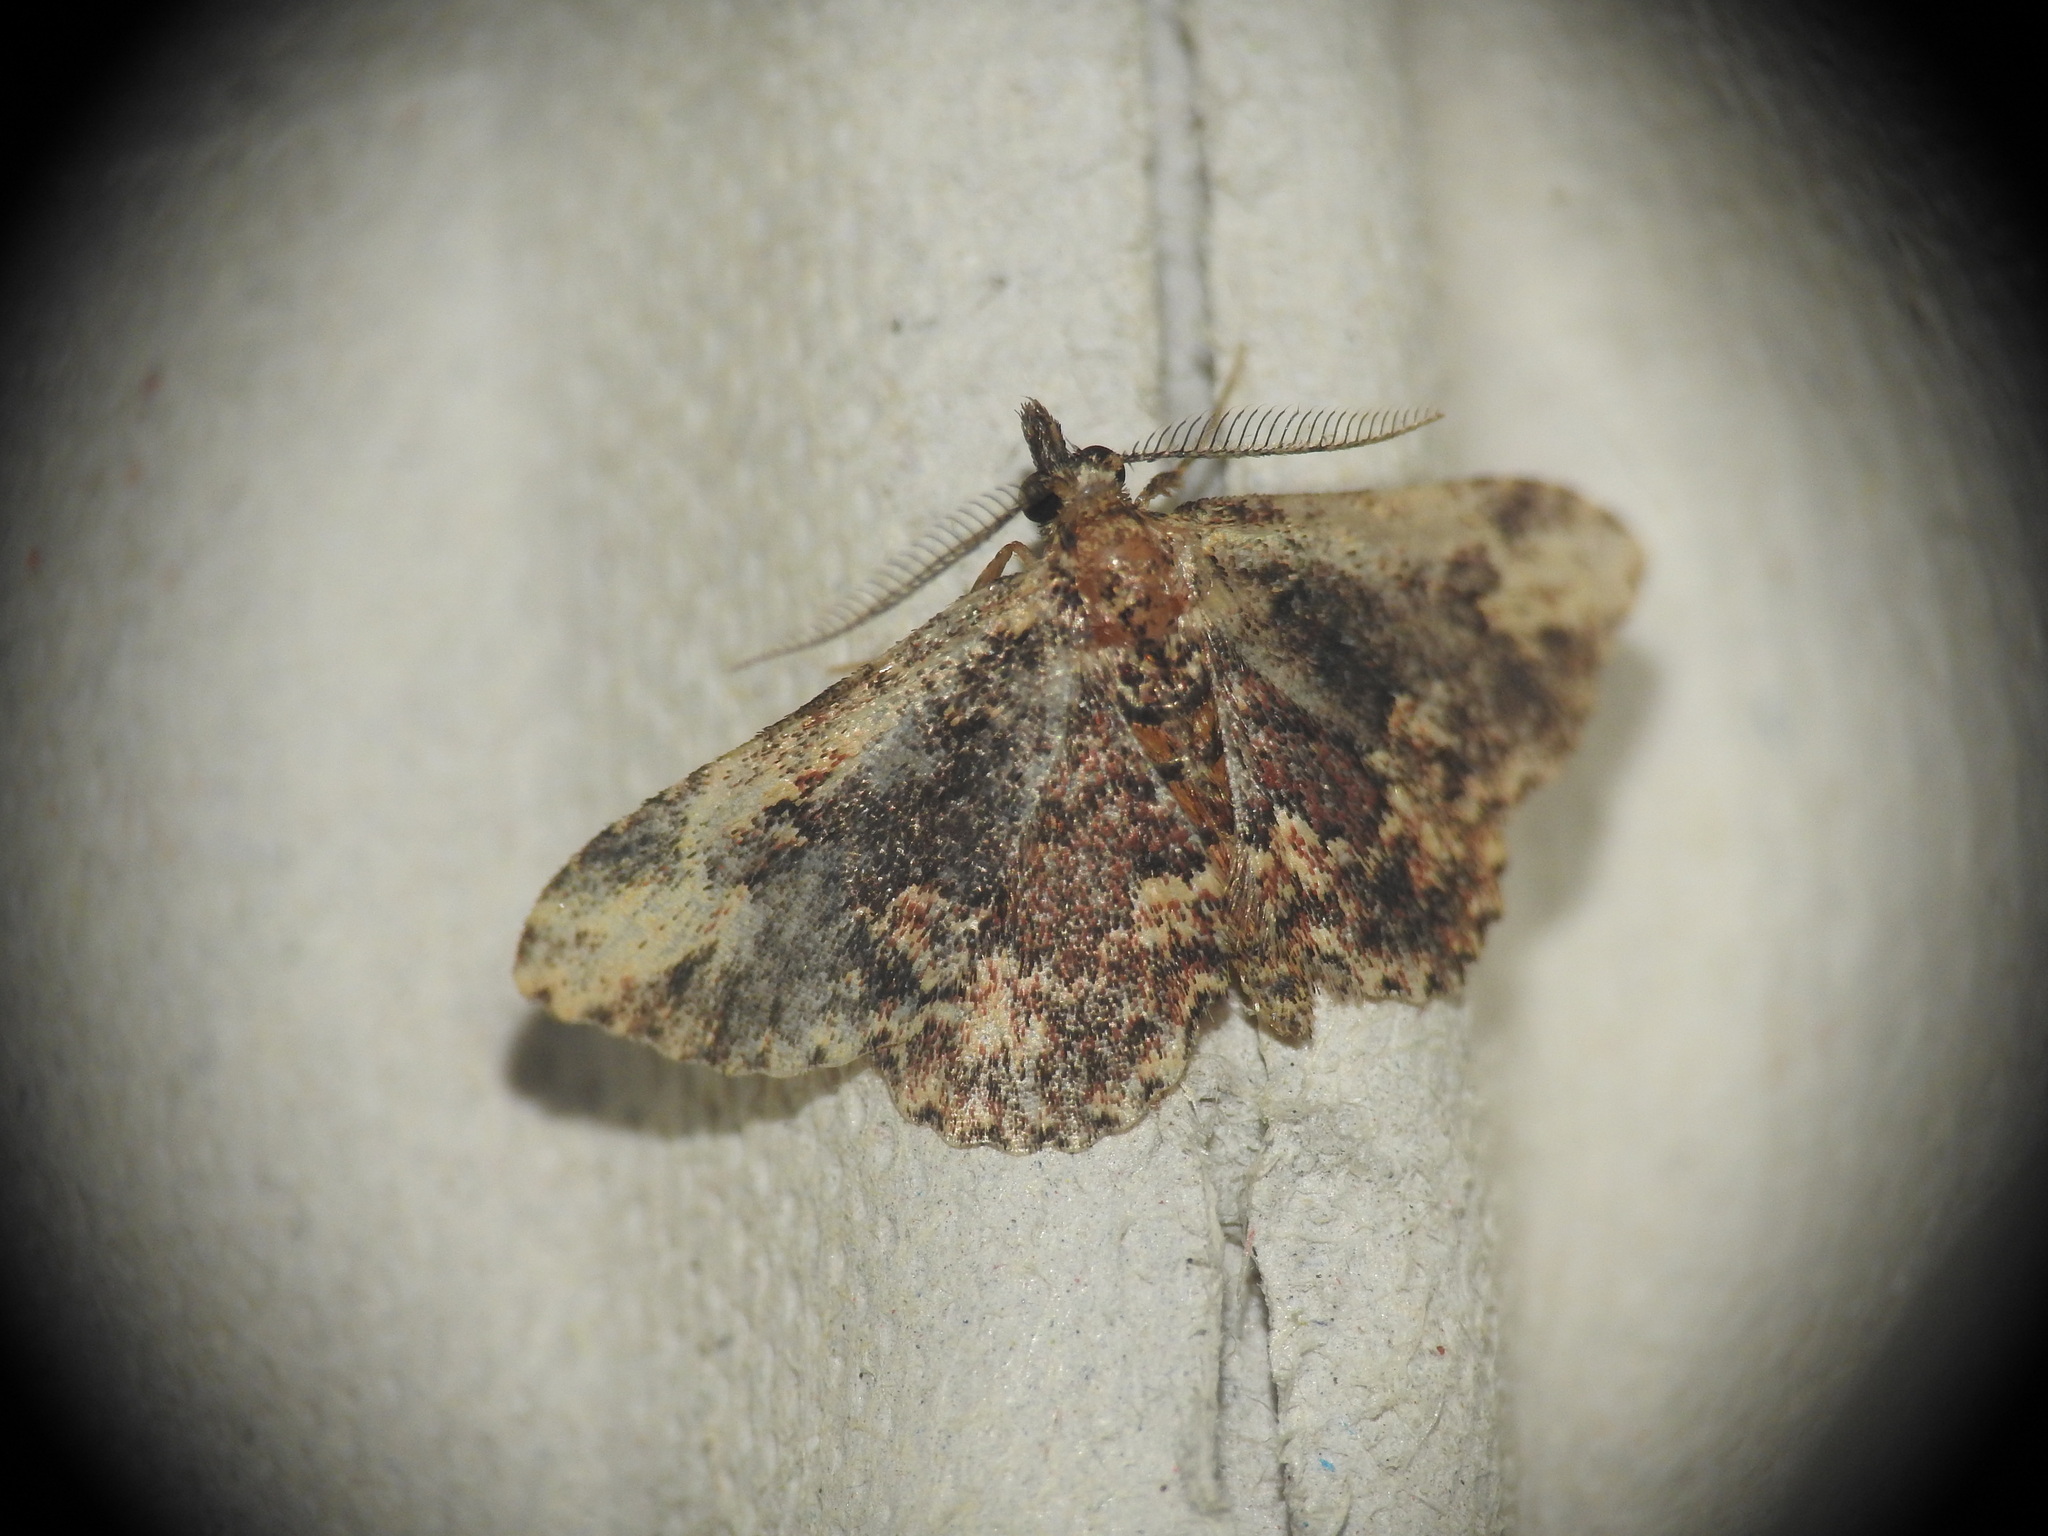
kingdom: Animalia
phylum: Arthropoda
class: Insecta
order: Lepidoptera
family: Erebidae
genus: Parascotia
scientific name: Parascotia nisseni
